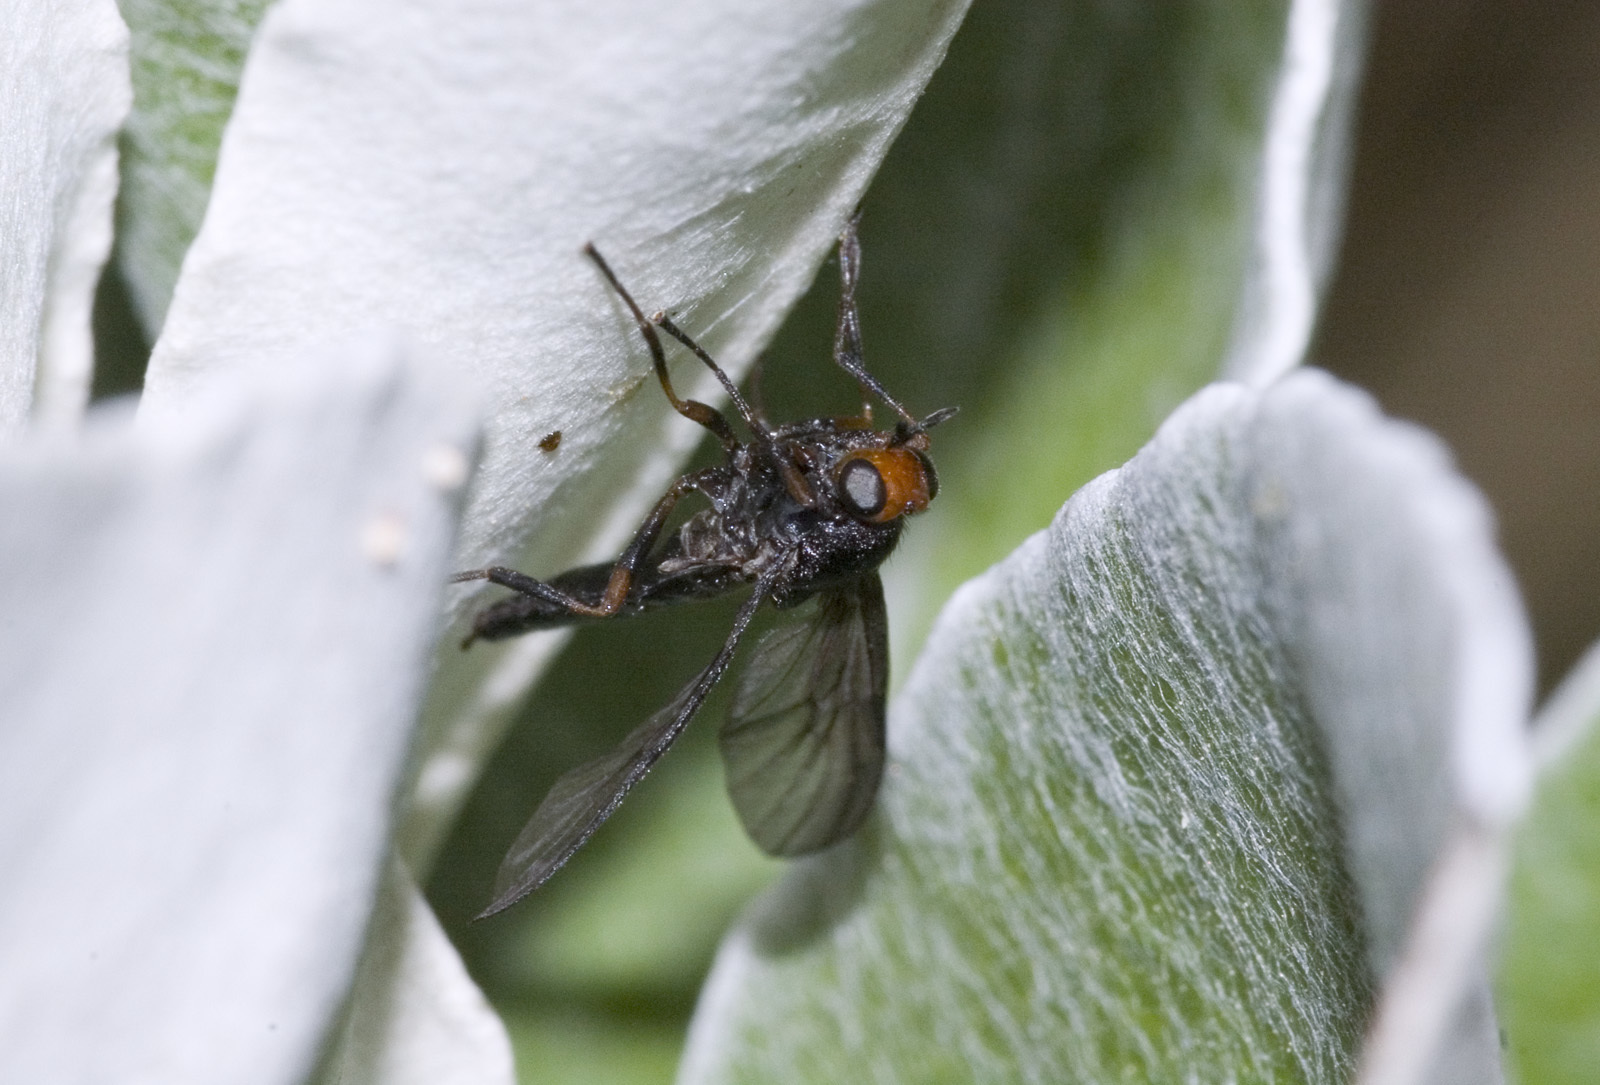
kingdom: Animalia
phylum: Arthropoda
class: Insecta
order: Diptera
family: Stratiomyidae
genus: Inopus
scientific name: Inopus rubriceps
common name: Soldier fly
